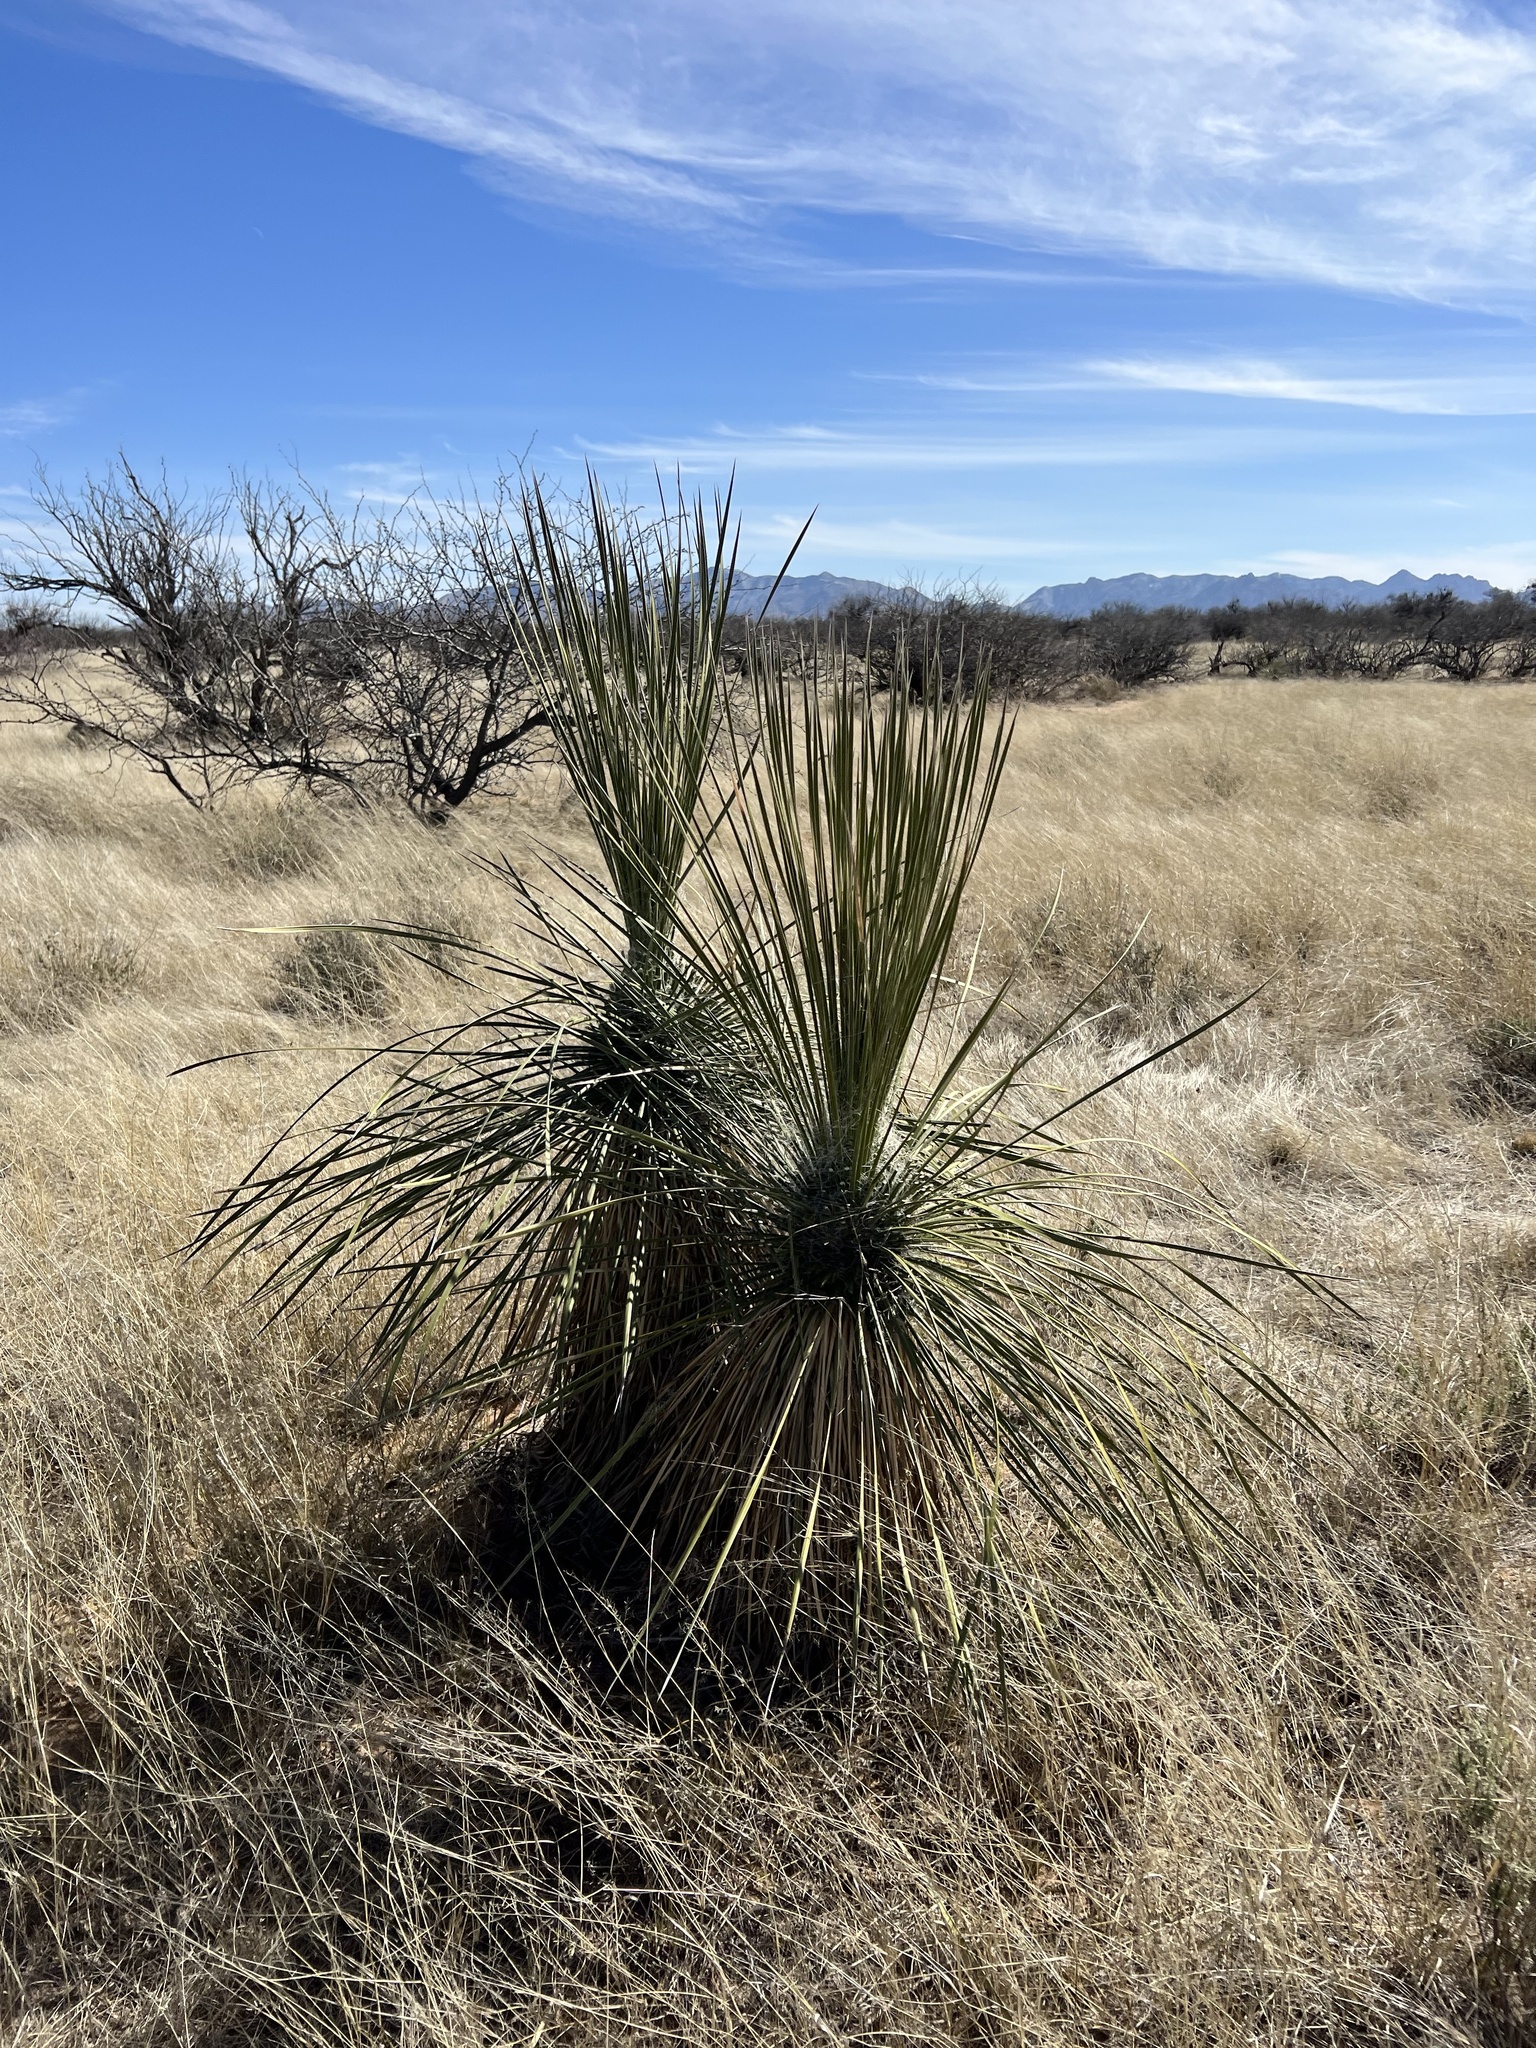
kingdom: Plantae
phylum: Tracheophyta
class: Liliopsida
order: Asparagales
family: Asparagaceae
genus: Yucca
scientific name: Yucca elata
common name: Palmella
